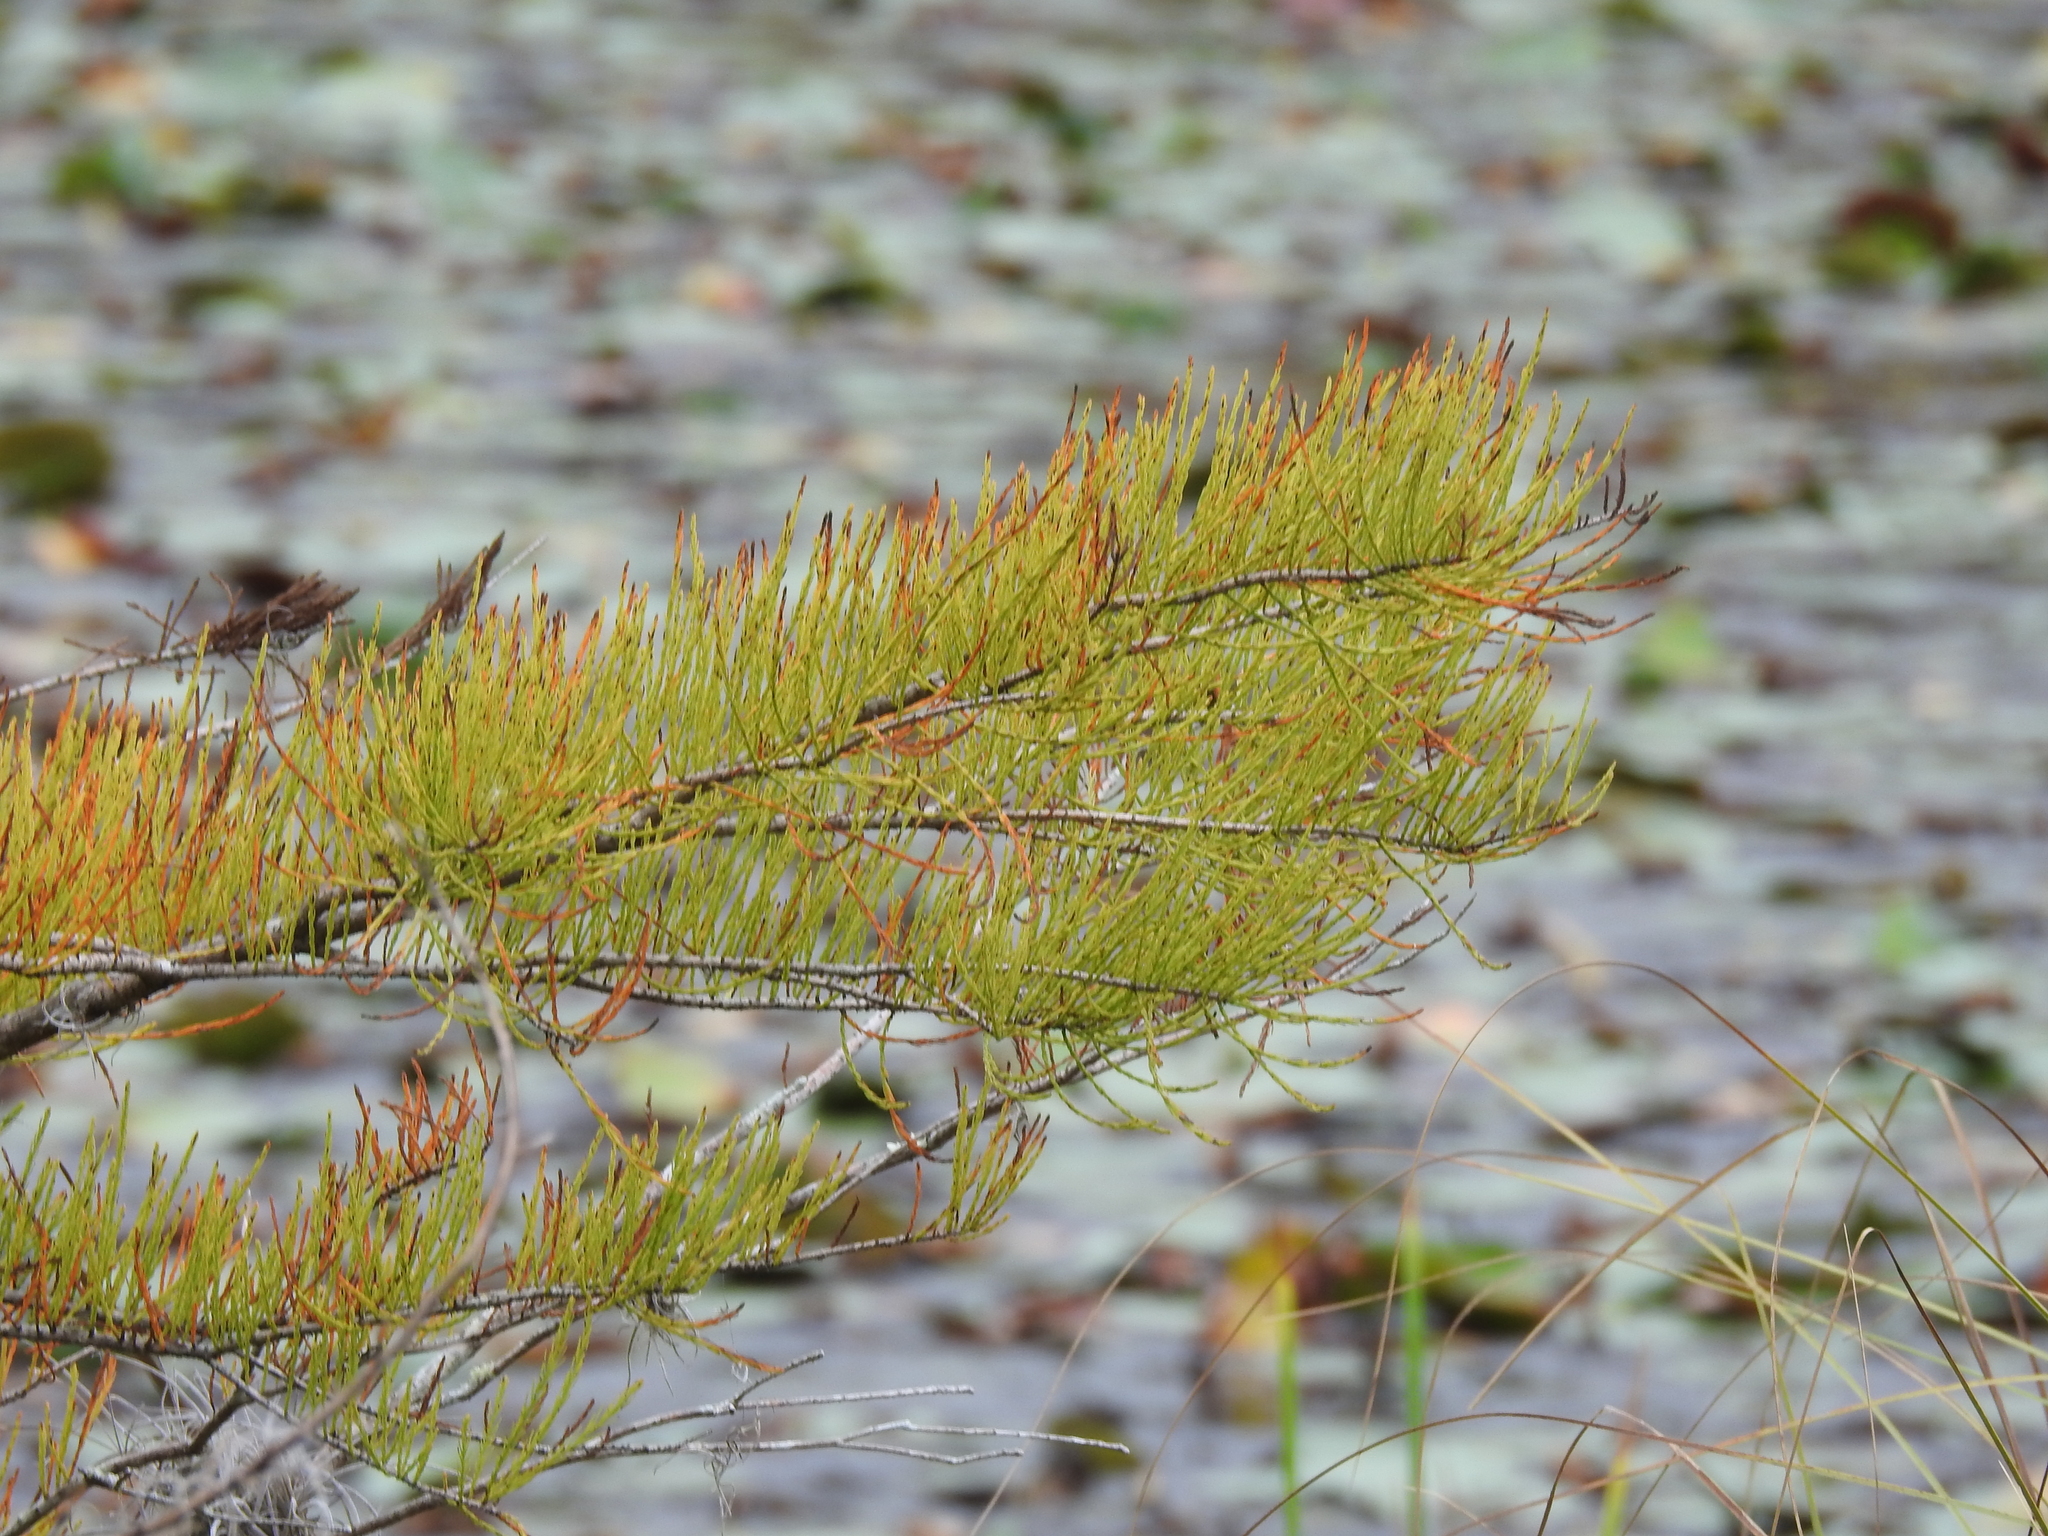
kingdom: Plantae
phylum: Tracheophyta
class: Pinopsida
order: Pinales
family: Cupressaceae
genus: Taxodium
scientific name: Taxodium distichum
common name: Bald cypress
